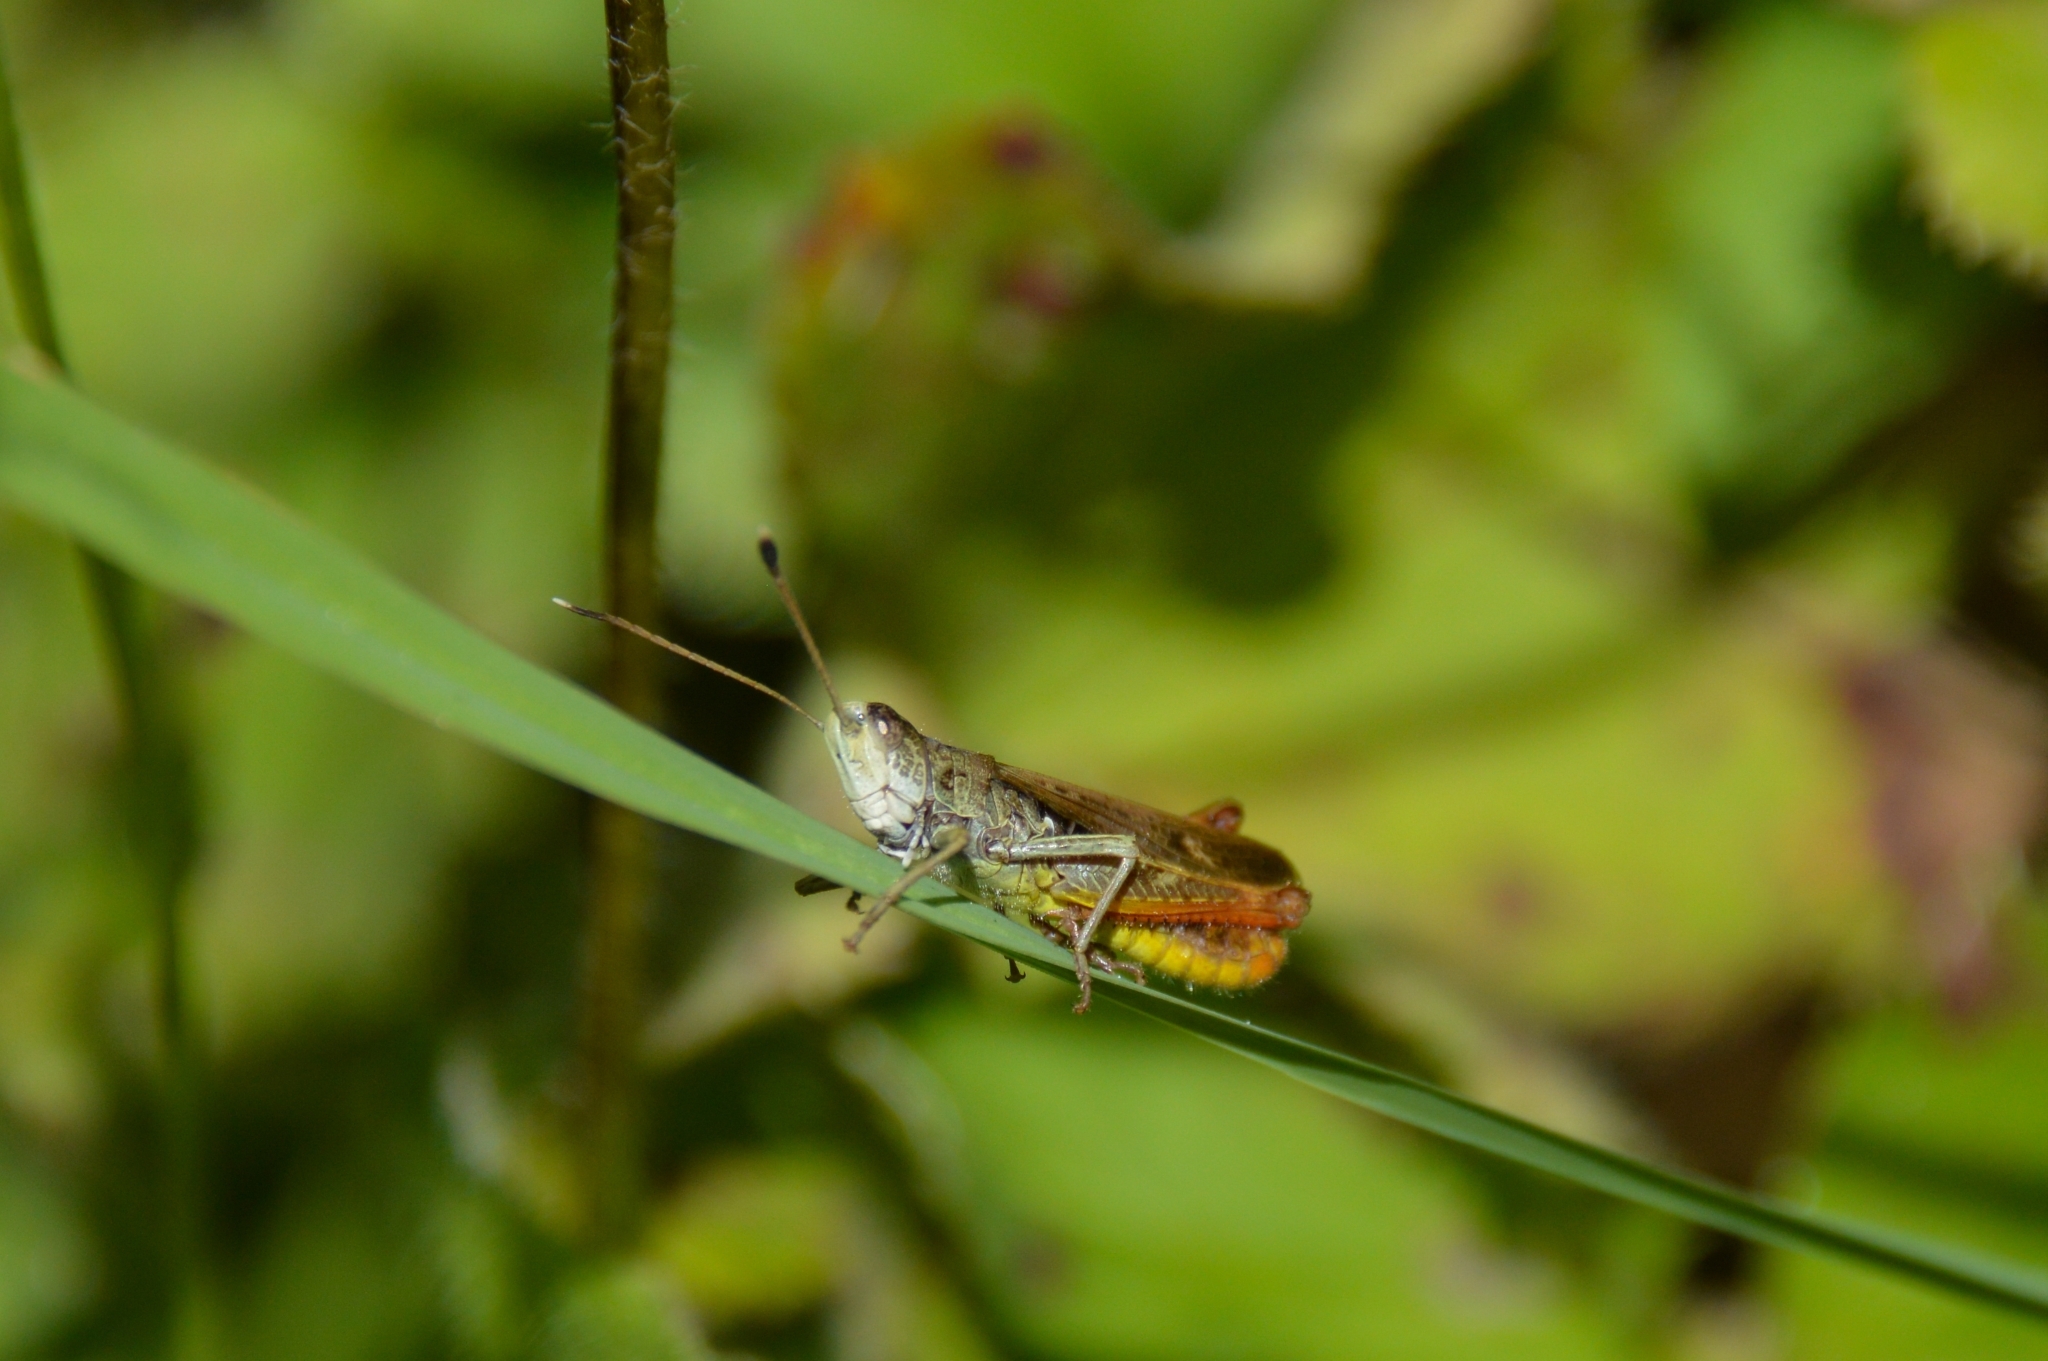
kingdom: Animalia
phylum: Arthropoda
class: Insecta
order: Orthoptera
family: Acrididae
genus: Gomphocerippus
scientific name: Gomphocerippus rufus
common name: Rufous grasshopper
